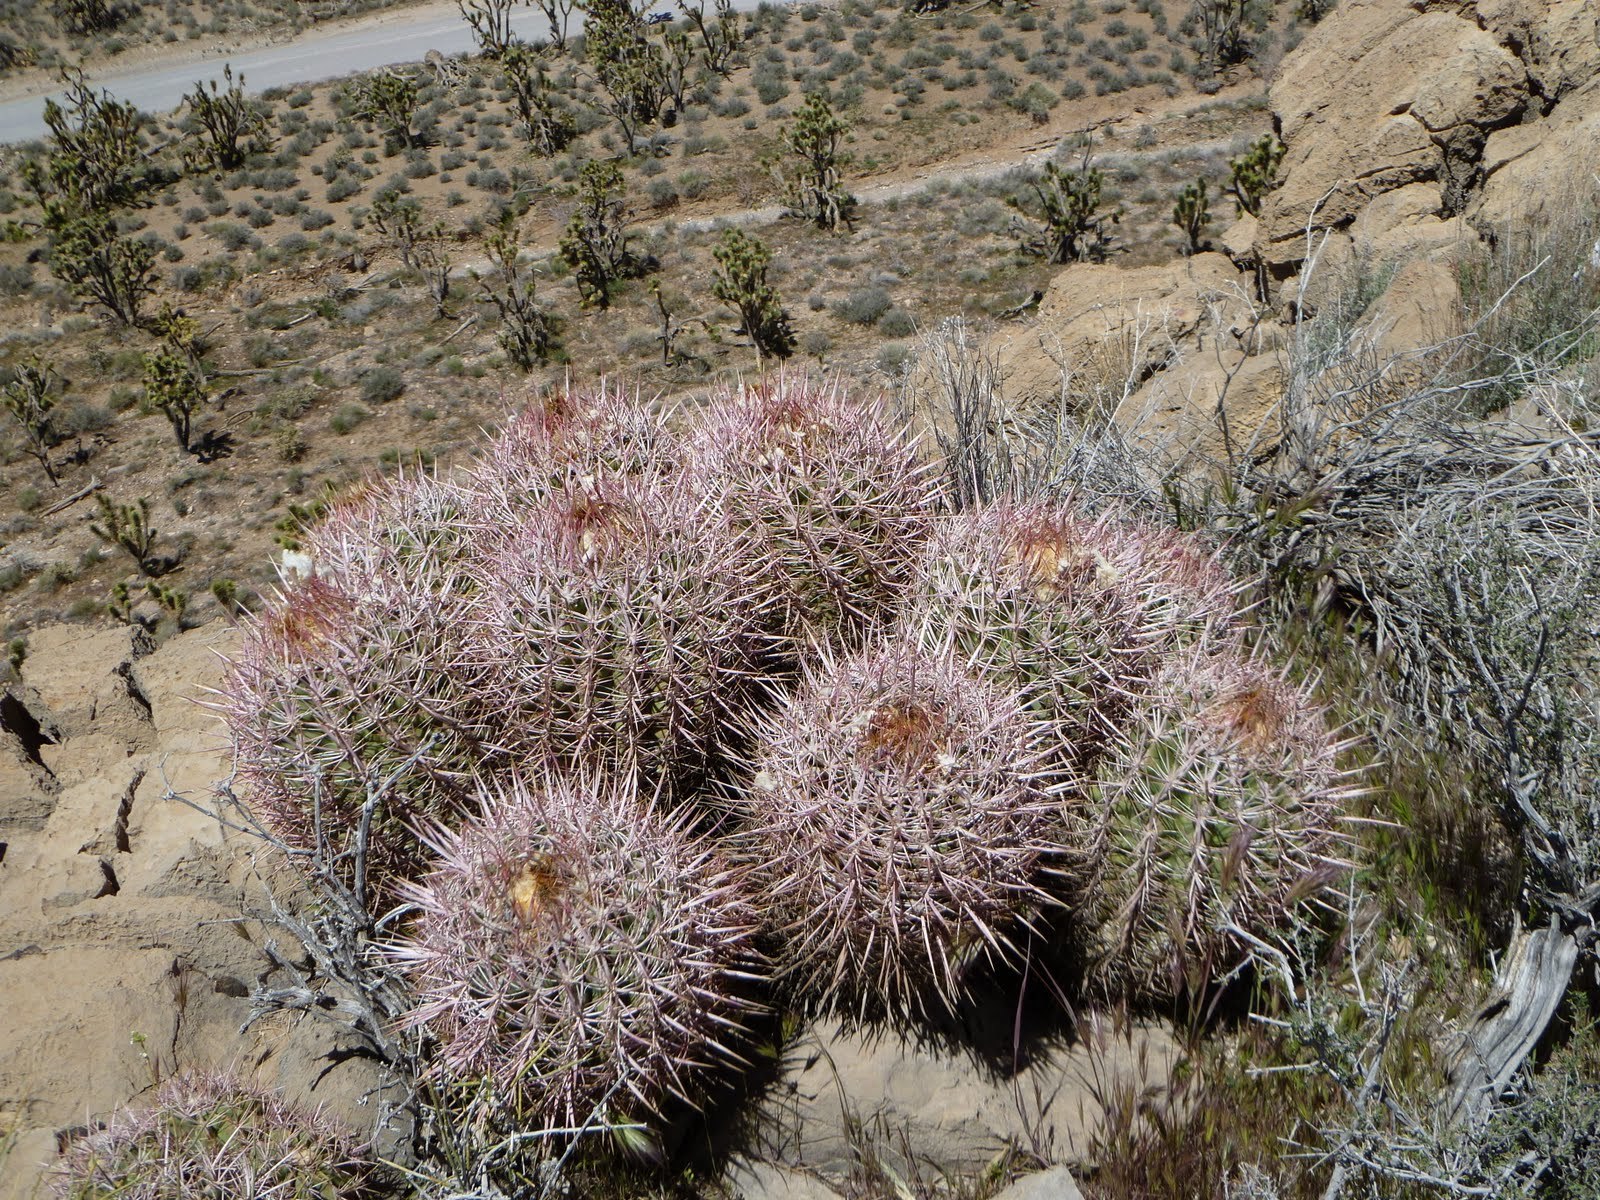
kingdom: Plantae
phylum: Tracheophyta
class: Magnoliopsida
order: Caryophyllales
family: Cactaceae
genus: Echinocactus
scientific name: Echinocactus polycephalus
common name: Cottontop cactus
